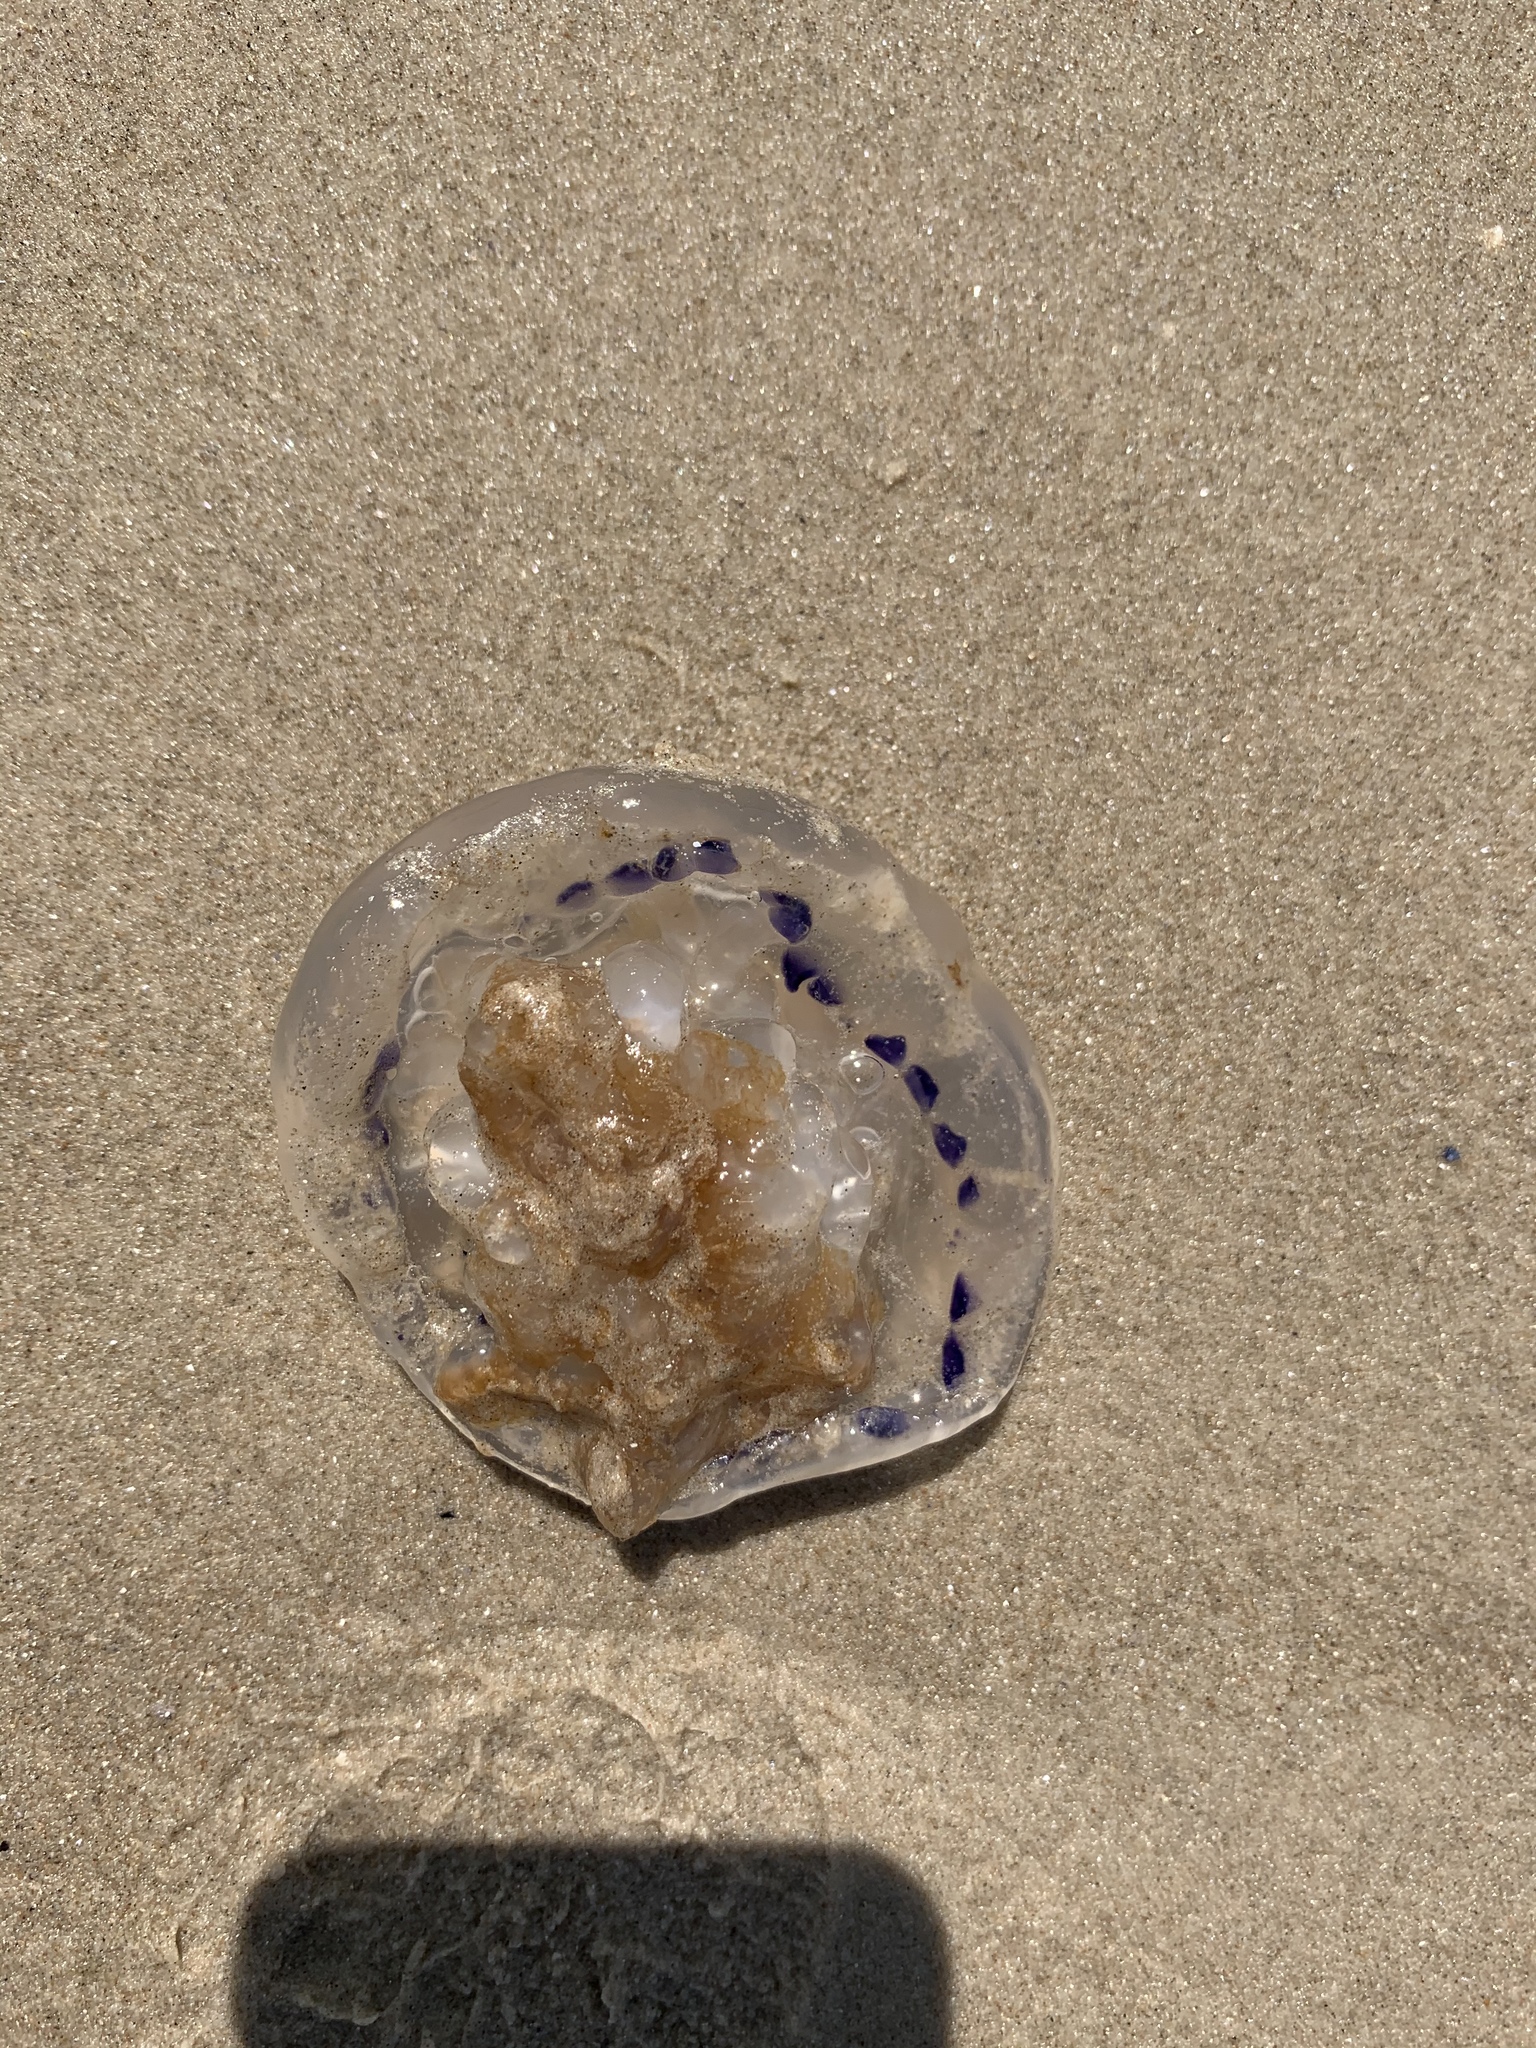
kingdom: Animalia
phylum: Cnidaria
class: Scyphozoa
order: Rhizostomeae
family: Lychnorhizidae
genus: Lychnorhiza
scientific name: Lychnorhiza lucerna
